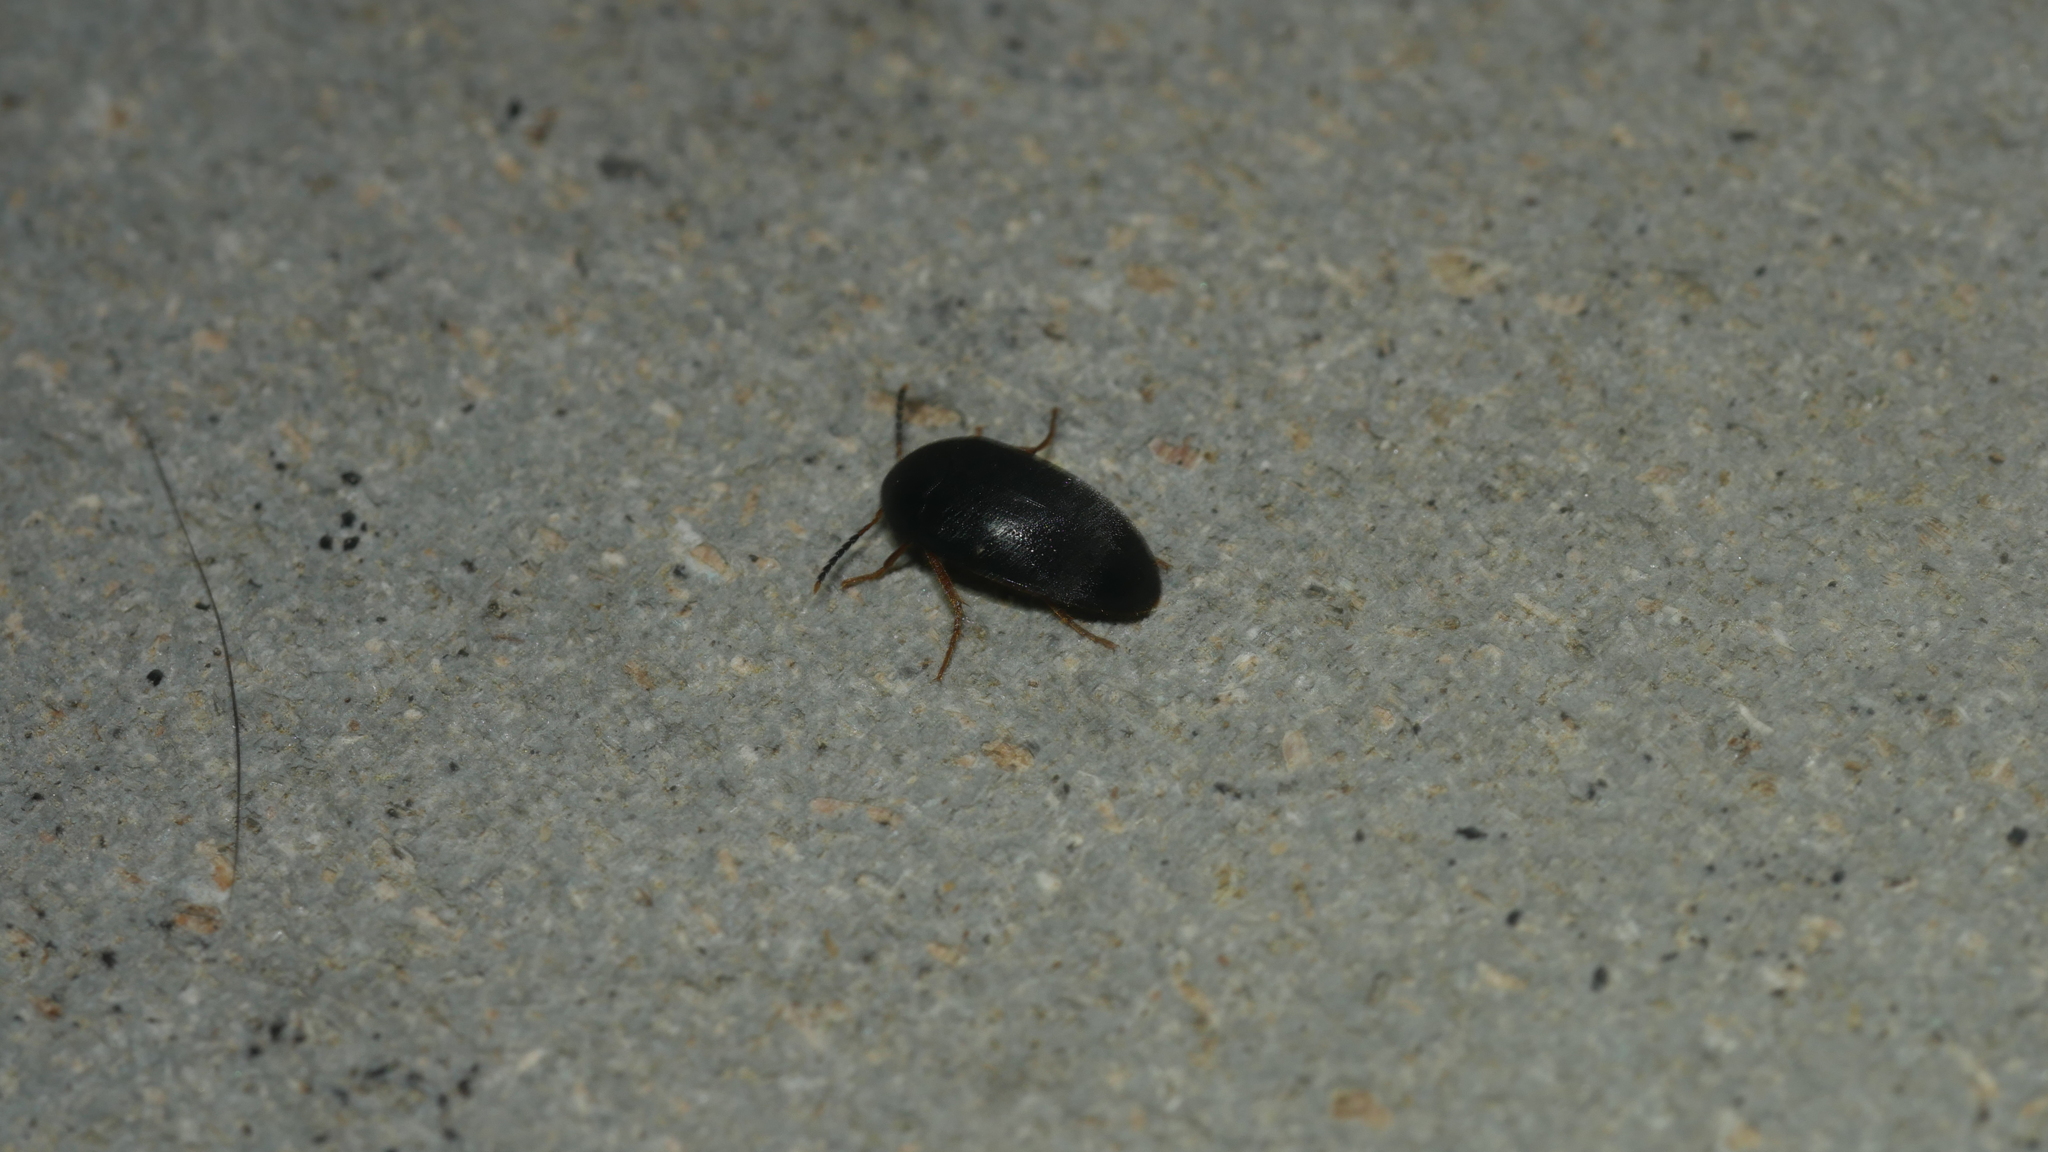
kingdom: Animalia
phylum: Arthropoda
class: Insecta
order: Coleoptera
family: Tetratomidae
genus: Eustrophopsis
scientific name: Eustrophopsis bicolor
